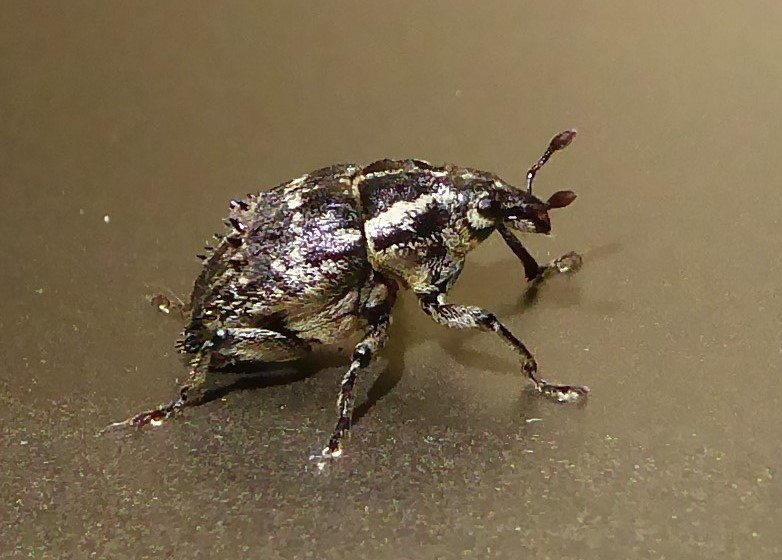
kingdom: Animalia
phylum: Arthropoda
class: Insecta
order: Coleoptera
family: Curculionidae
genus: Psepholax
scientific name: Psepholax coronatus
